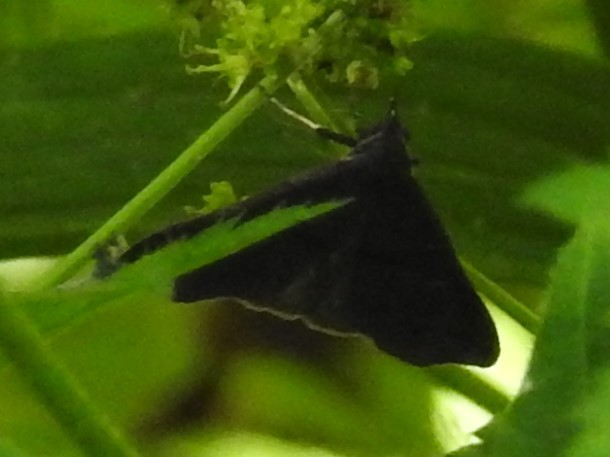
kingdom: Animalia
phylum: Arthropoda
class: Insecta
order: Lepidoptera
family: Erebidae
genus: Renia
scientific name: Renia adspergillus
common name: Speckled renia moth
